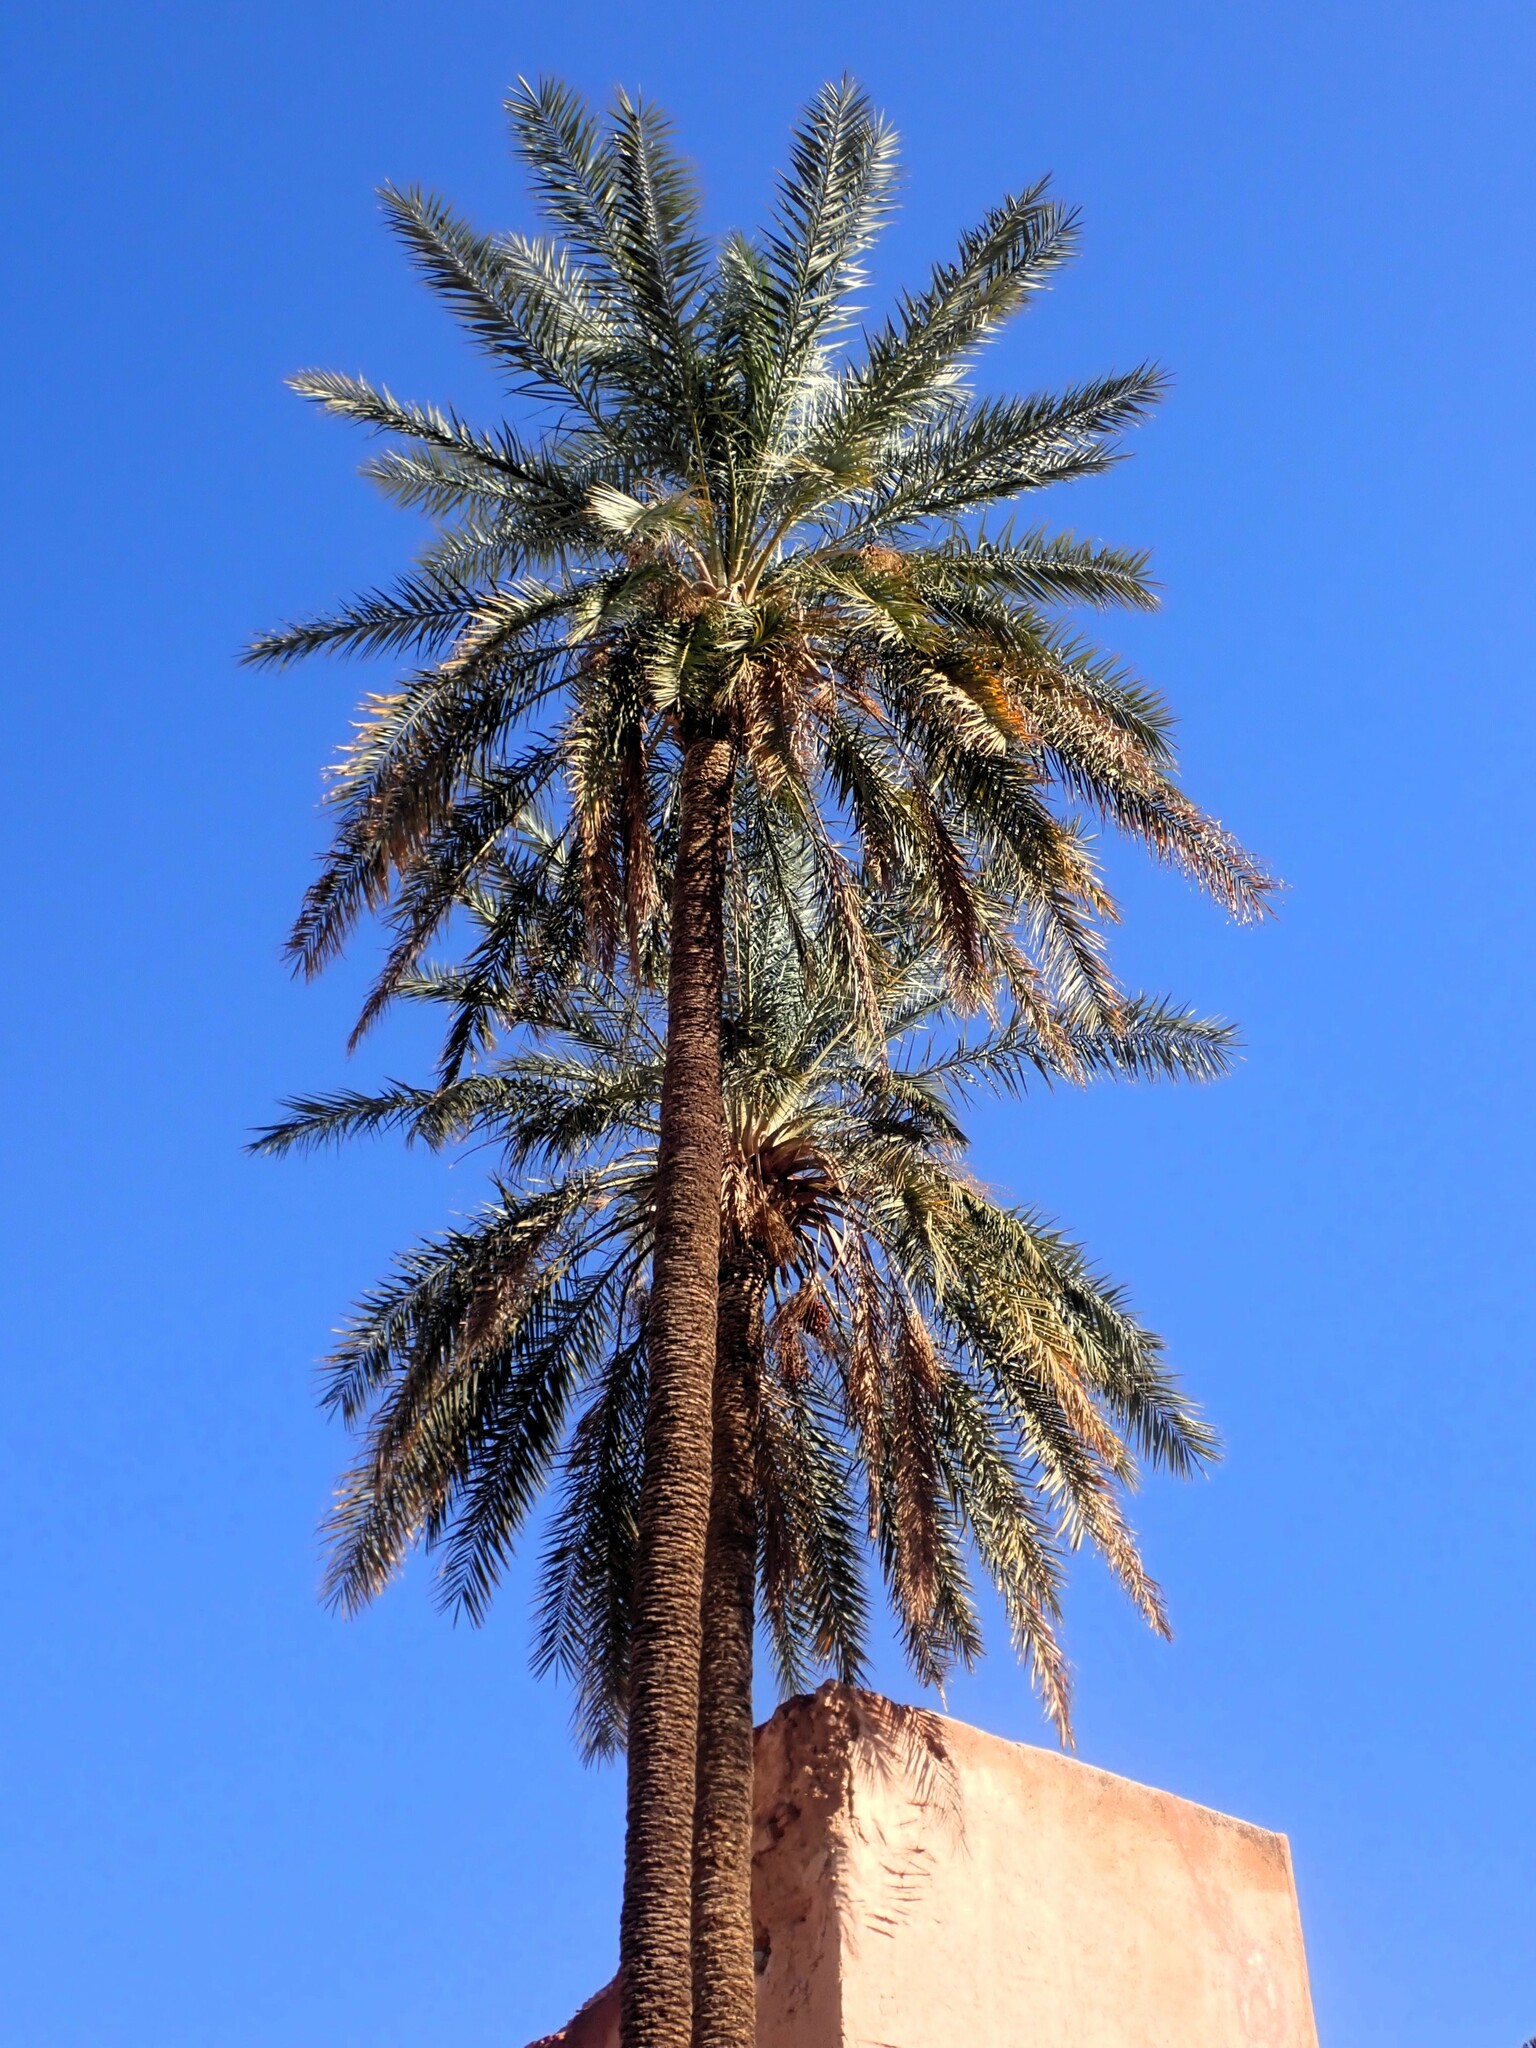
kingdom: Plantae
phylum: Tracheophyta
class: Liliopsida
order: Arecales
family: Arecaceae
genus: Phoenix
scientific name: Phoenix dactylifera
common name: Date palm
